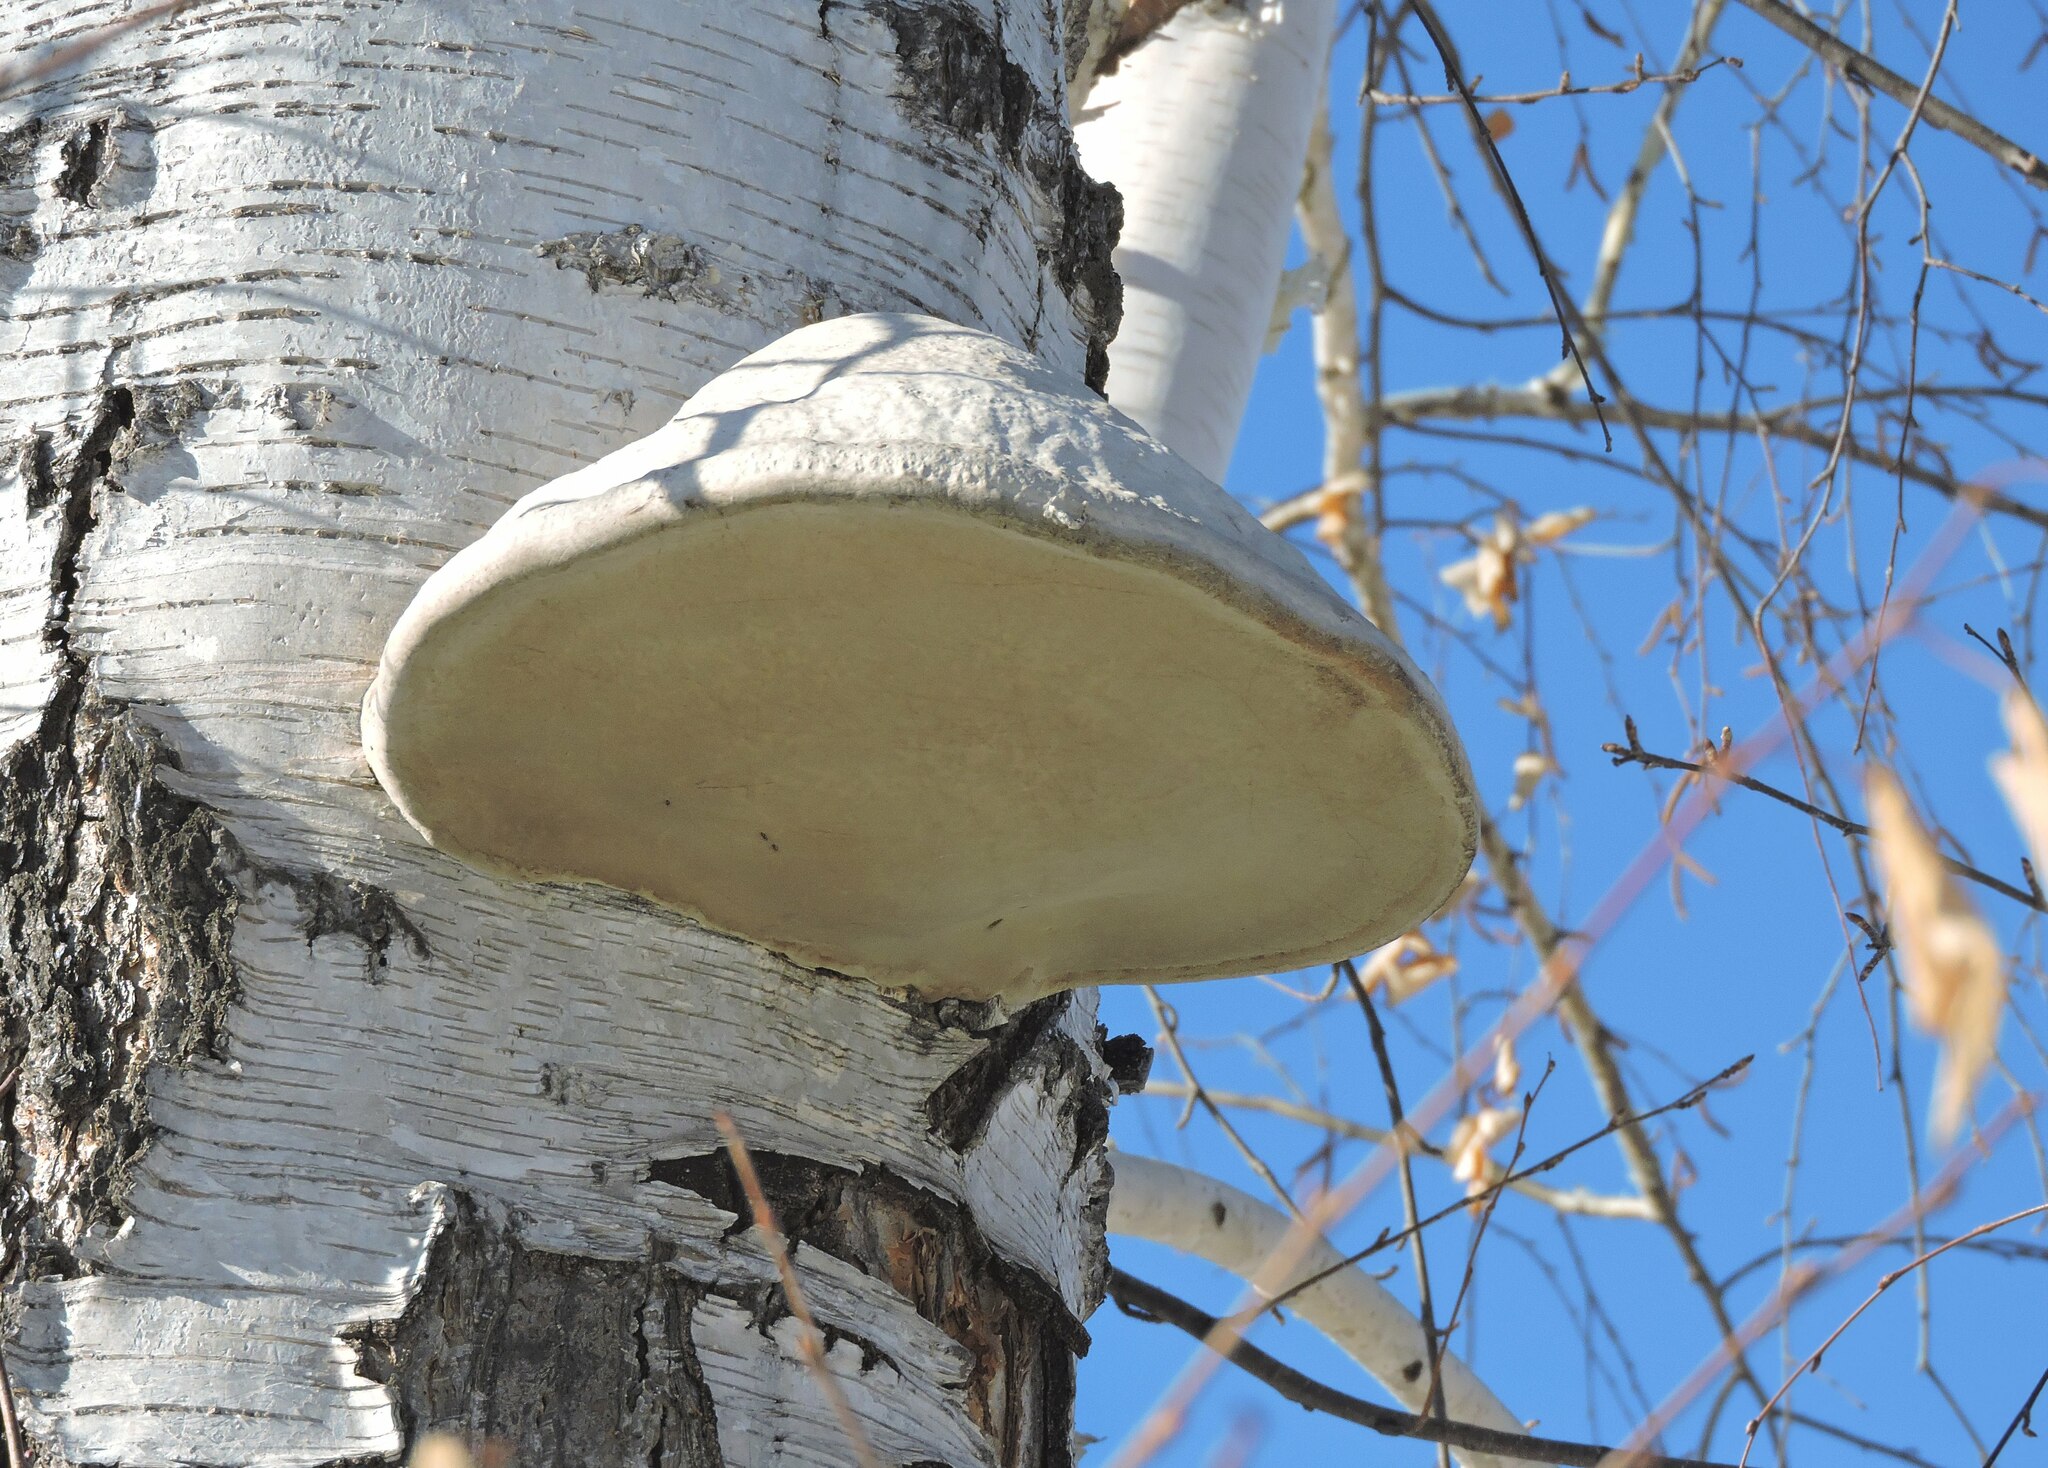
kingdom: Fungi
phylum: Basidiomycota
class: Agaricomycetes
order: Polyporales
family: Polyporaceae
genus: Fomes
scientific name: Fomes fomentarius
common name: Hoof fungus
